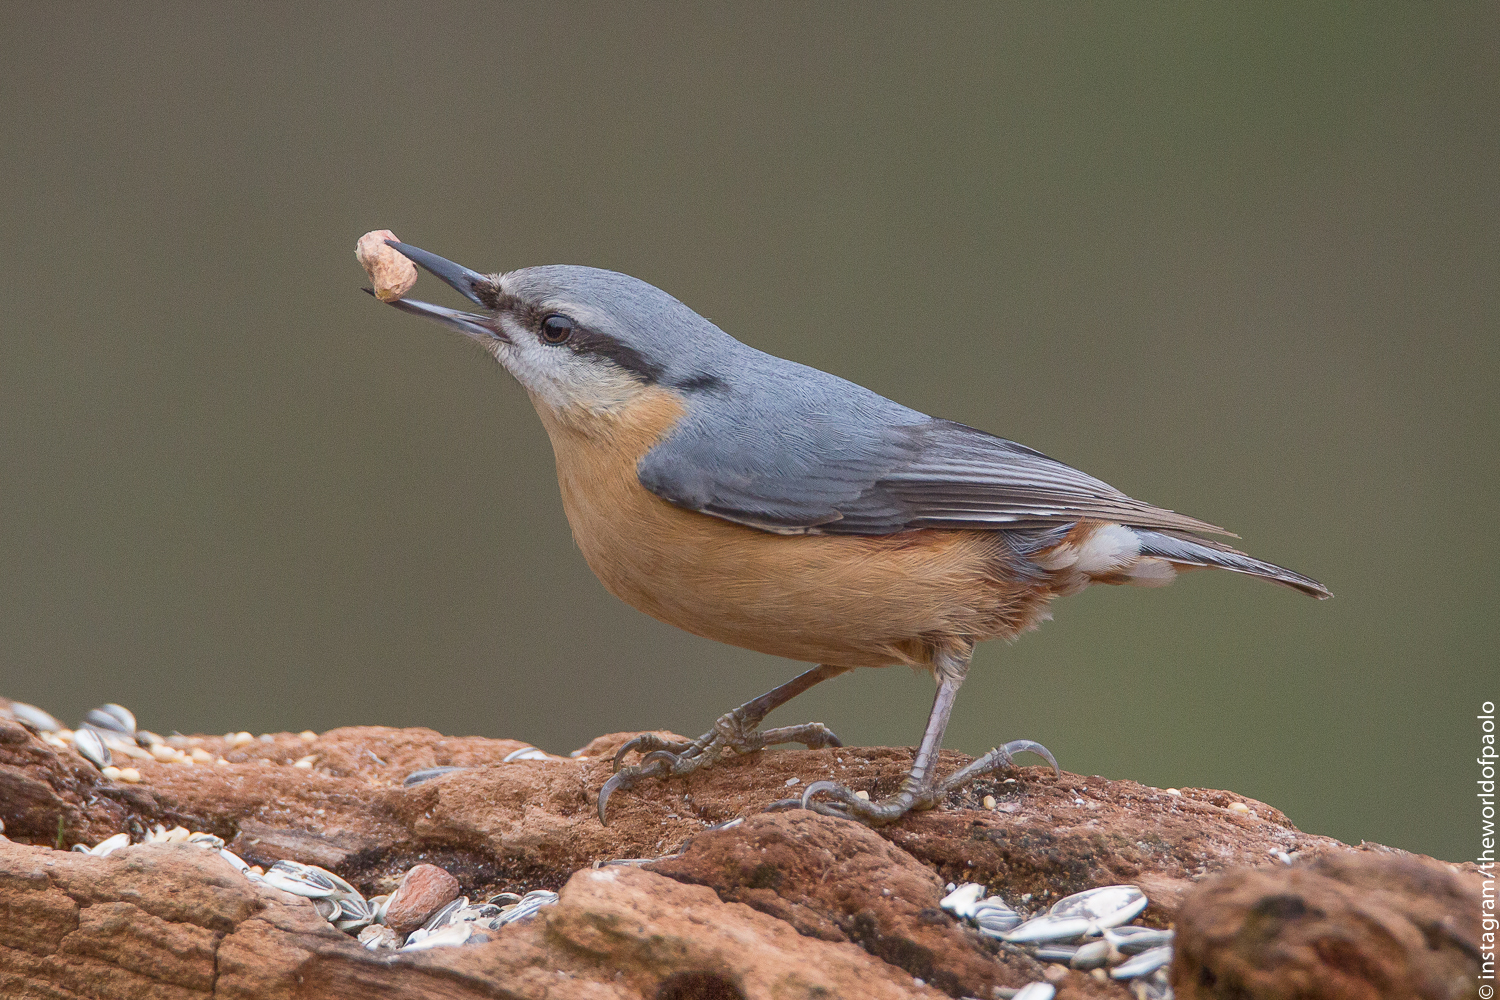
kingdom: Animalia
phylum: Chordata
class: Aves
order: Passeriformes
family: Sittidae
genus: Sitta
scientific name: Sitta europaea
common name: Eurasian nuthatch
